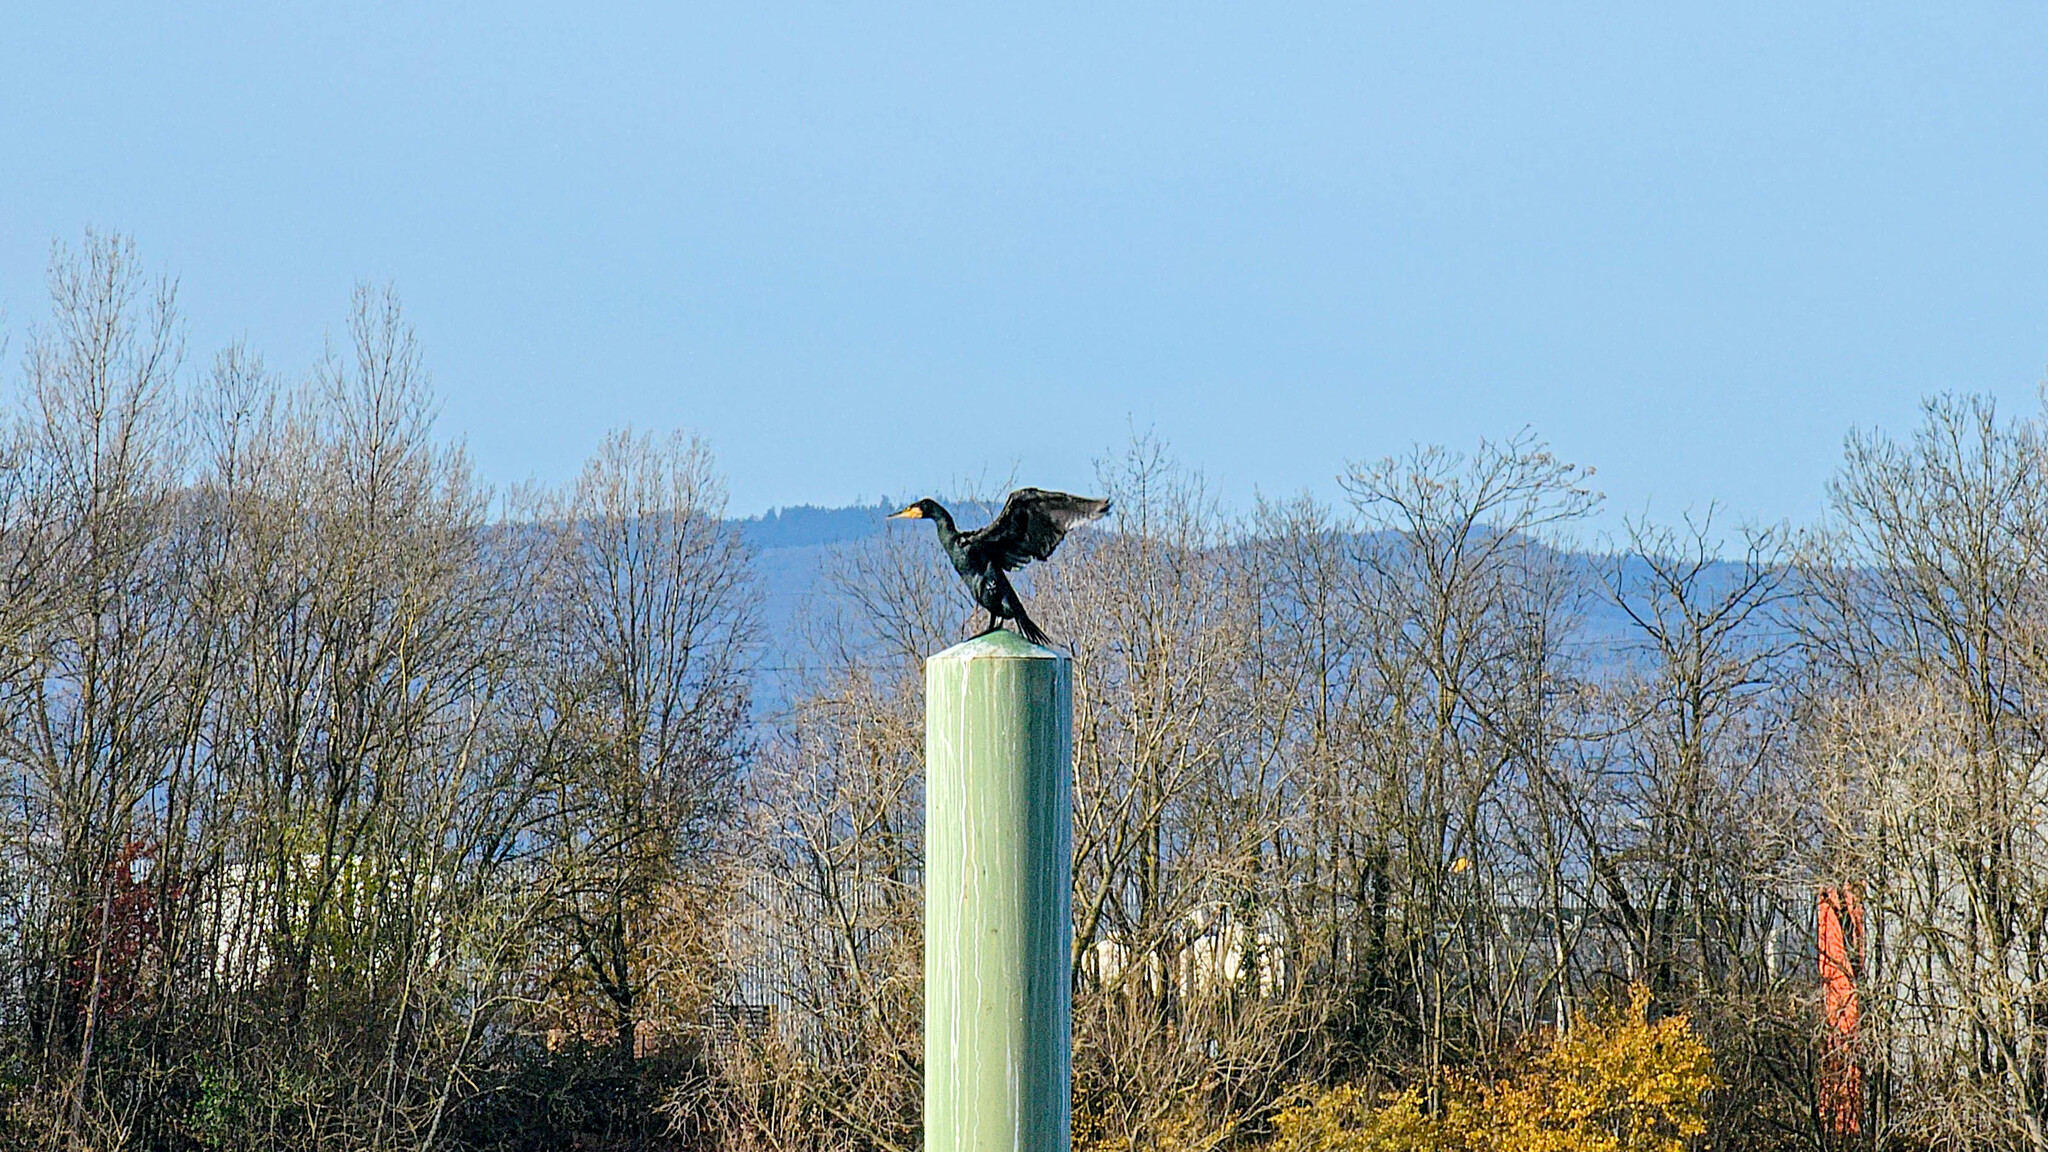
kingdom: Animalia
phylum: Chordata
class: Aves
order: Suliformes
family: Phalacrocoracidae
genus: Phalacrocorax
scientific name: Phalacrocorax carbo
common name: Great cormorant
